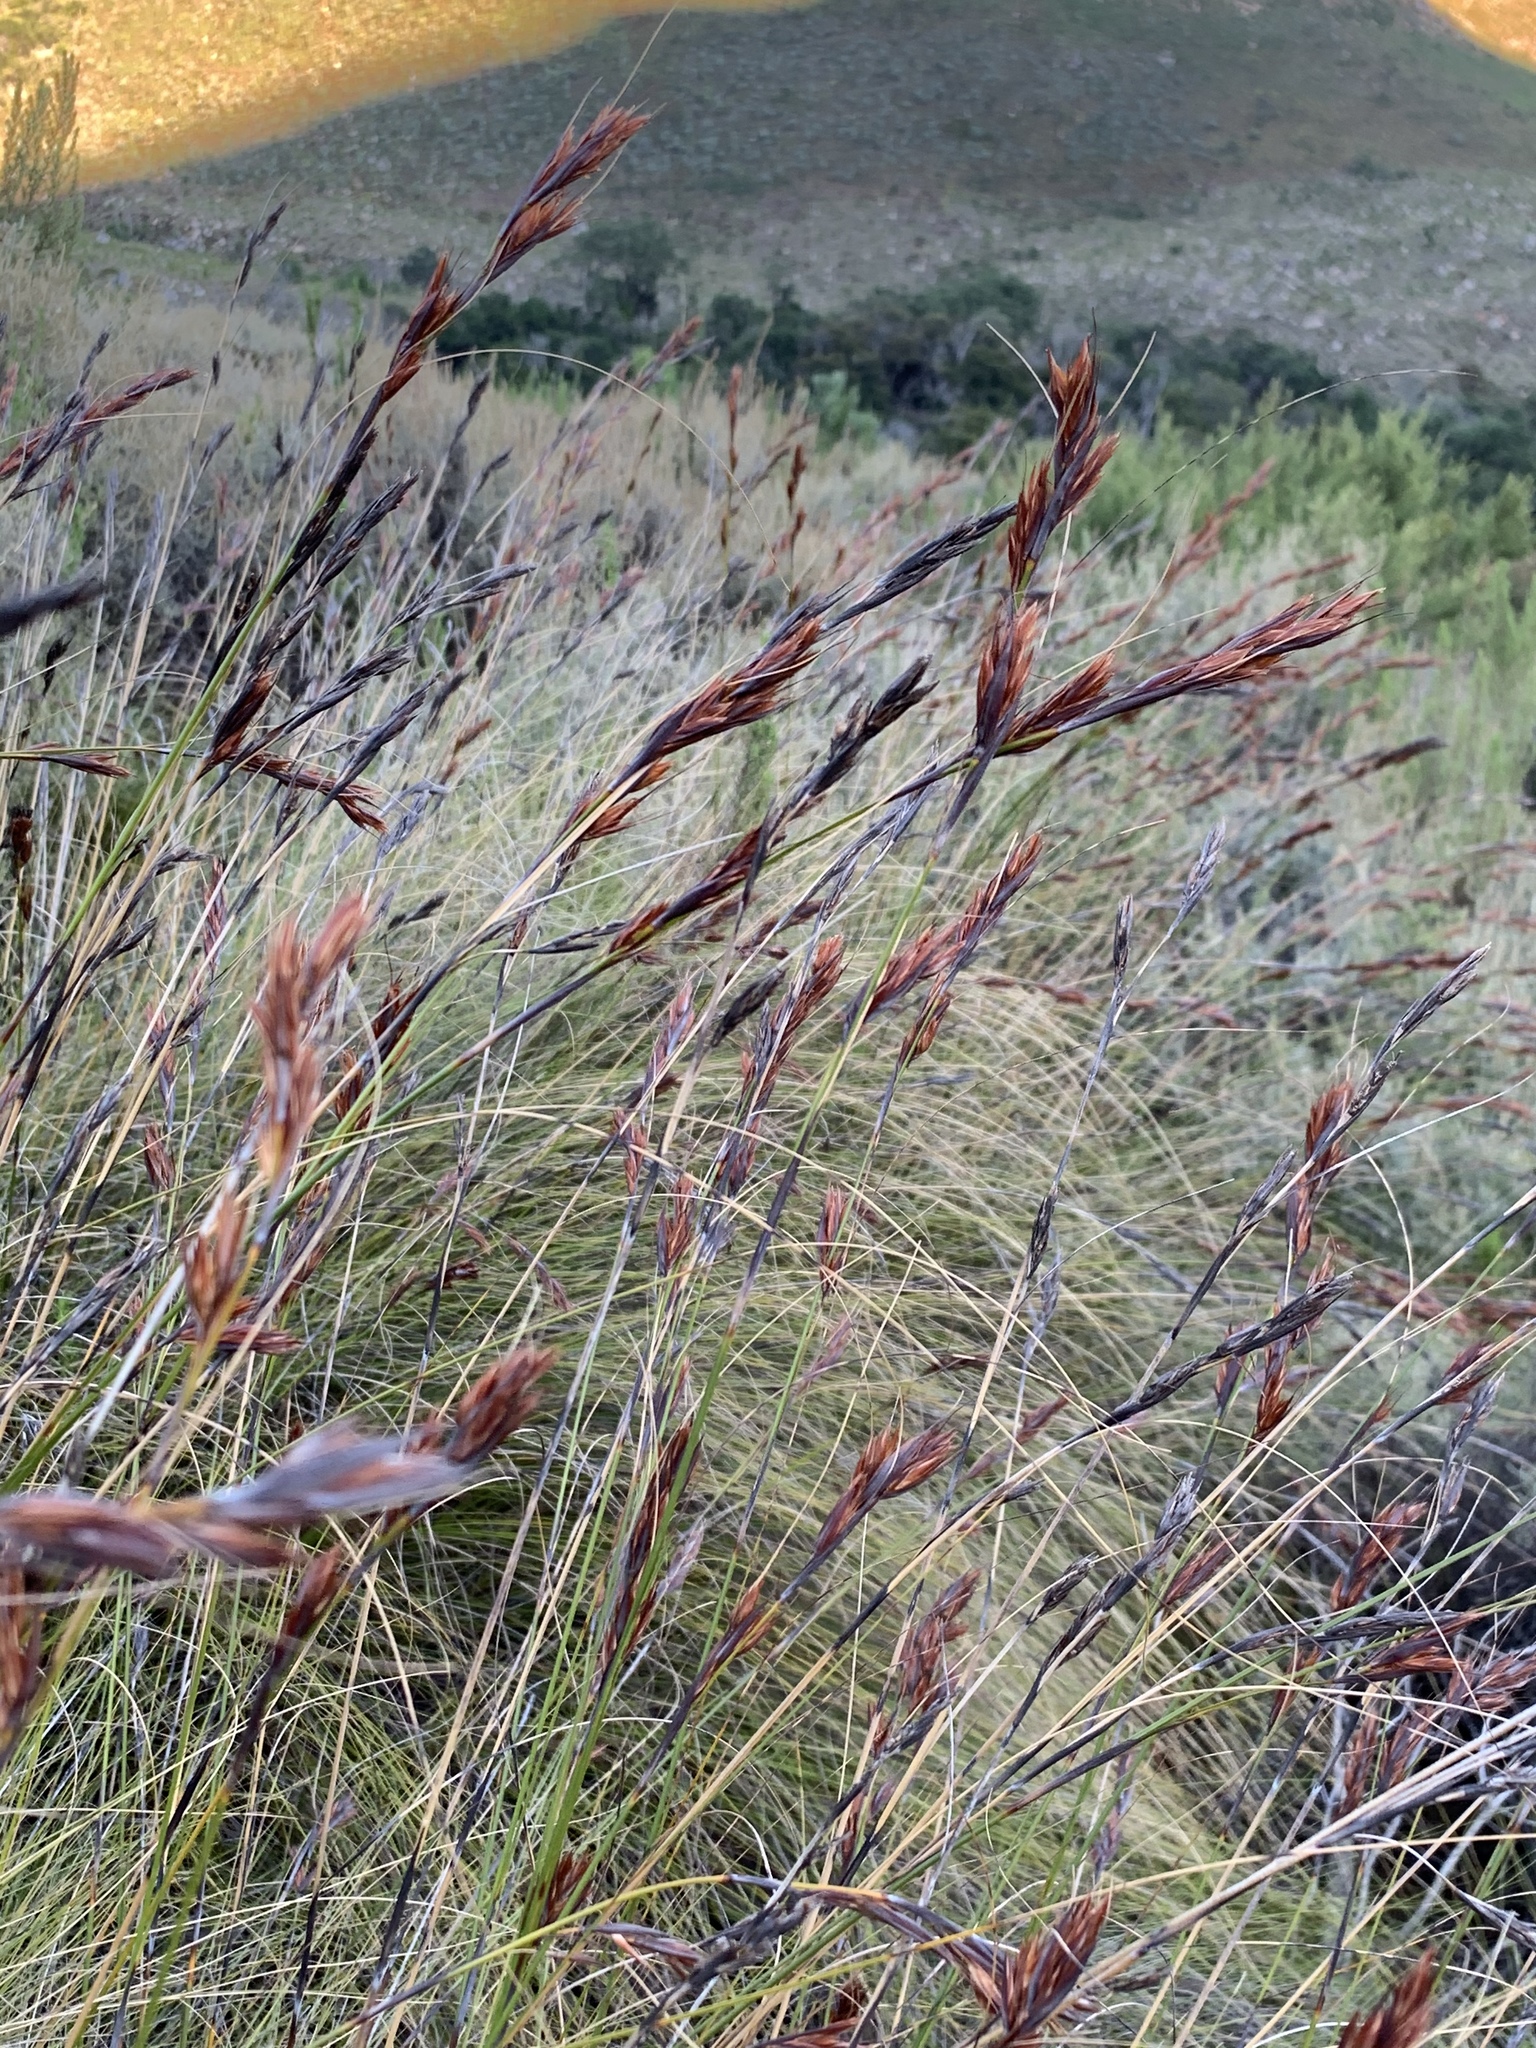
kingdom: Plantae
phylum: Tracheophyta
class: Liliopsida
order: Poales
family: Cyperaceae
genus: Tetraria
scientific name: Tetraria ustulata
